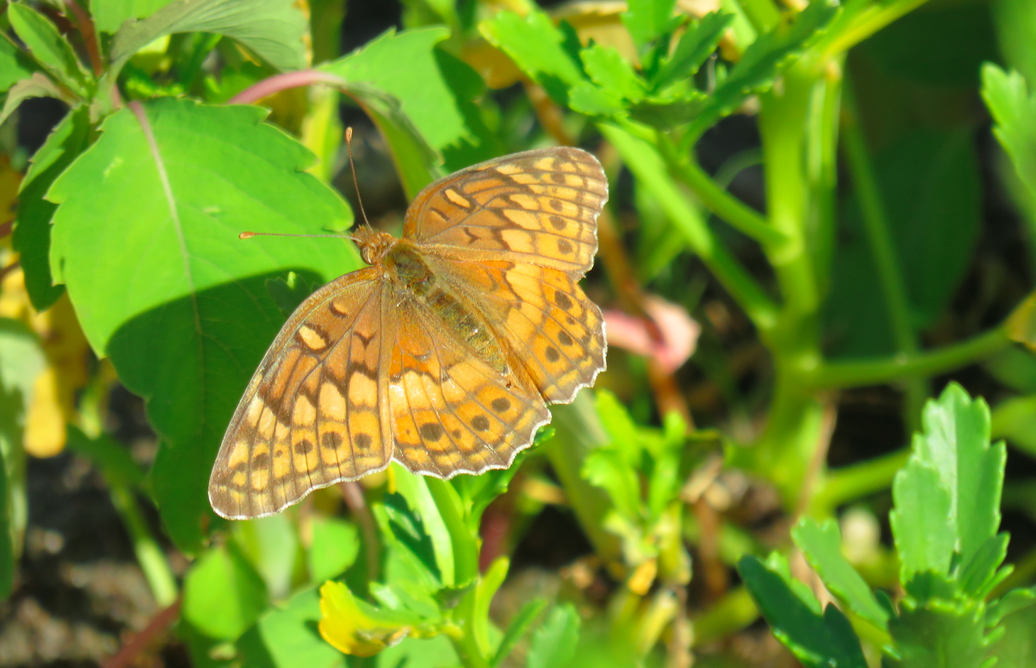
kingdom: Animalia
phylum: Arthropoda
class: Insecta
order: Lepidoptera
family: Nymphalidae
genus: Euptoieta
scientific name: Euptoieta claudia
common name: Variegated fritillary
